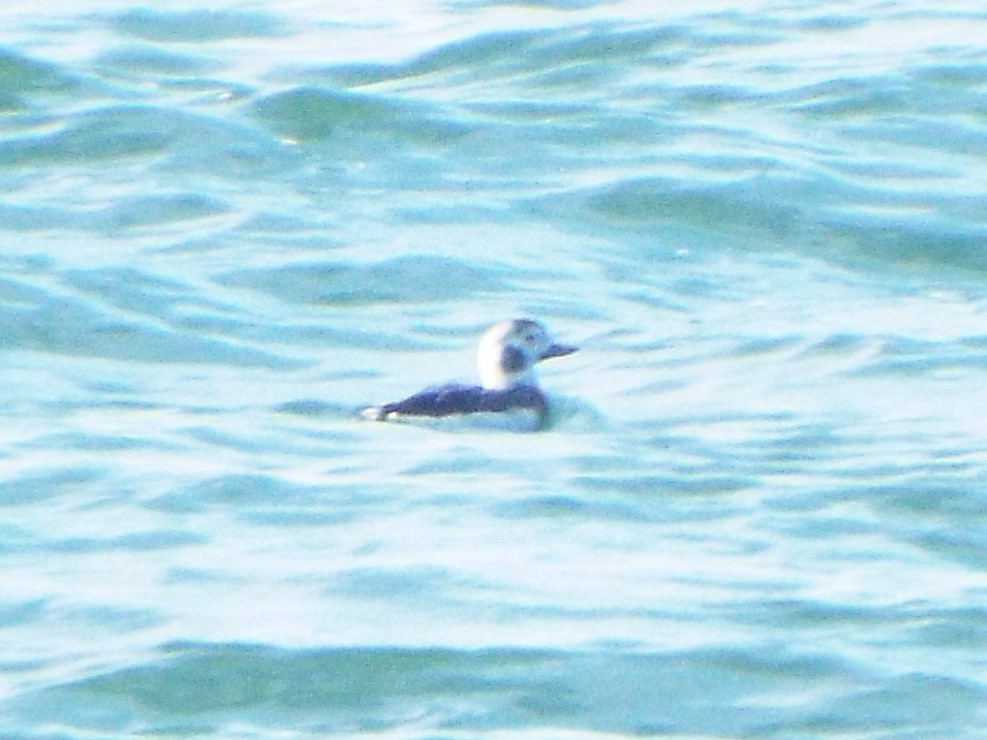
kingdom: Animalia
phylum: Chordata
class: Aves
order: Anseriformes
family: Anatidae
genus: Clangula
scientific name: Clangula hyemalis
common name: Long-tailed duck
